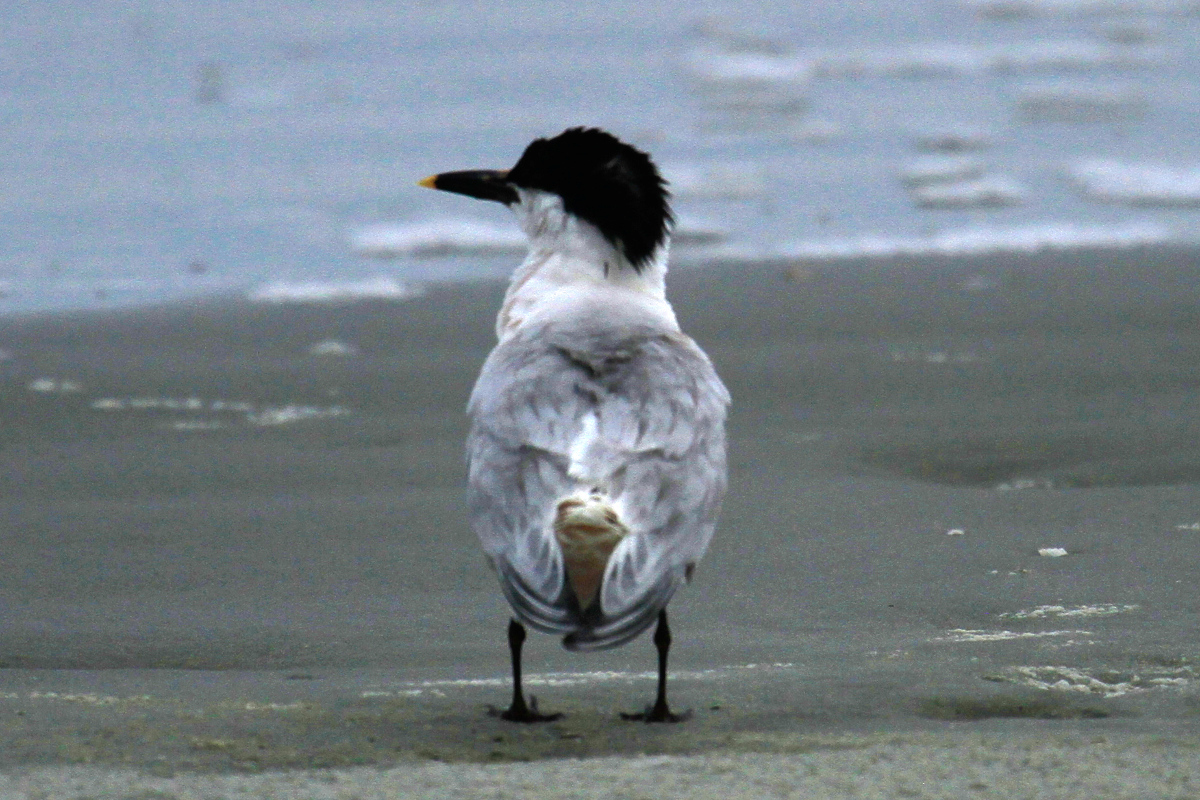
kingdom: Animalia
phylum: Chordata
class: Aves
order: Charadriiformes
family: Laridae
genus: Thalasseus
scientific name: Thalasseus sandvicensis
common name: Sandwich tern
